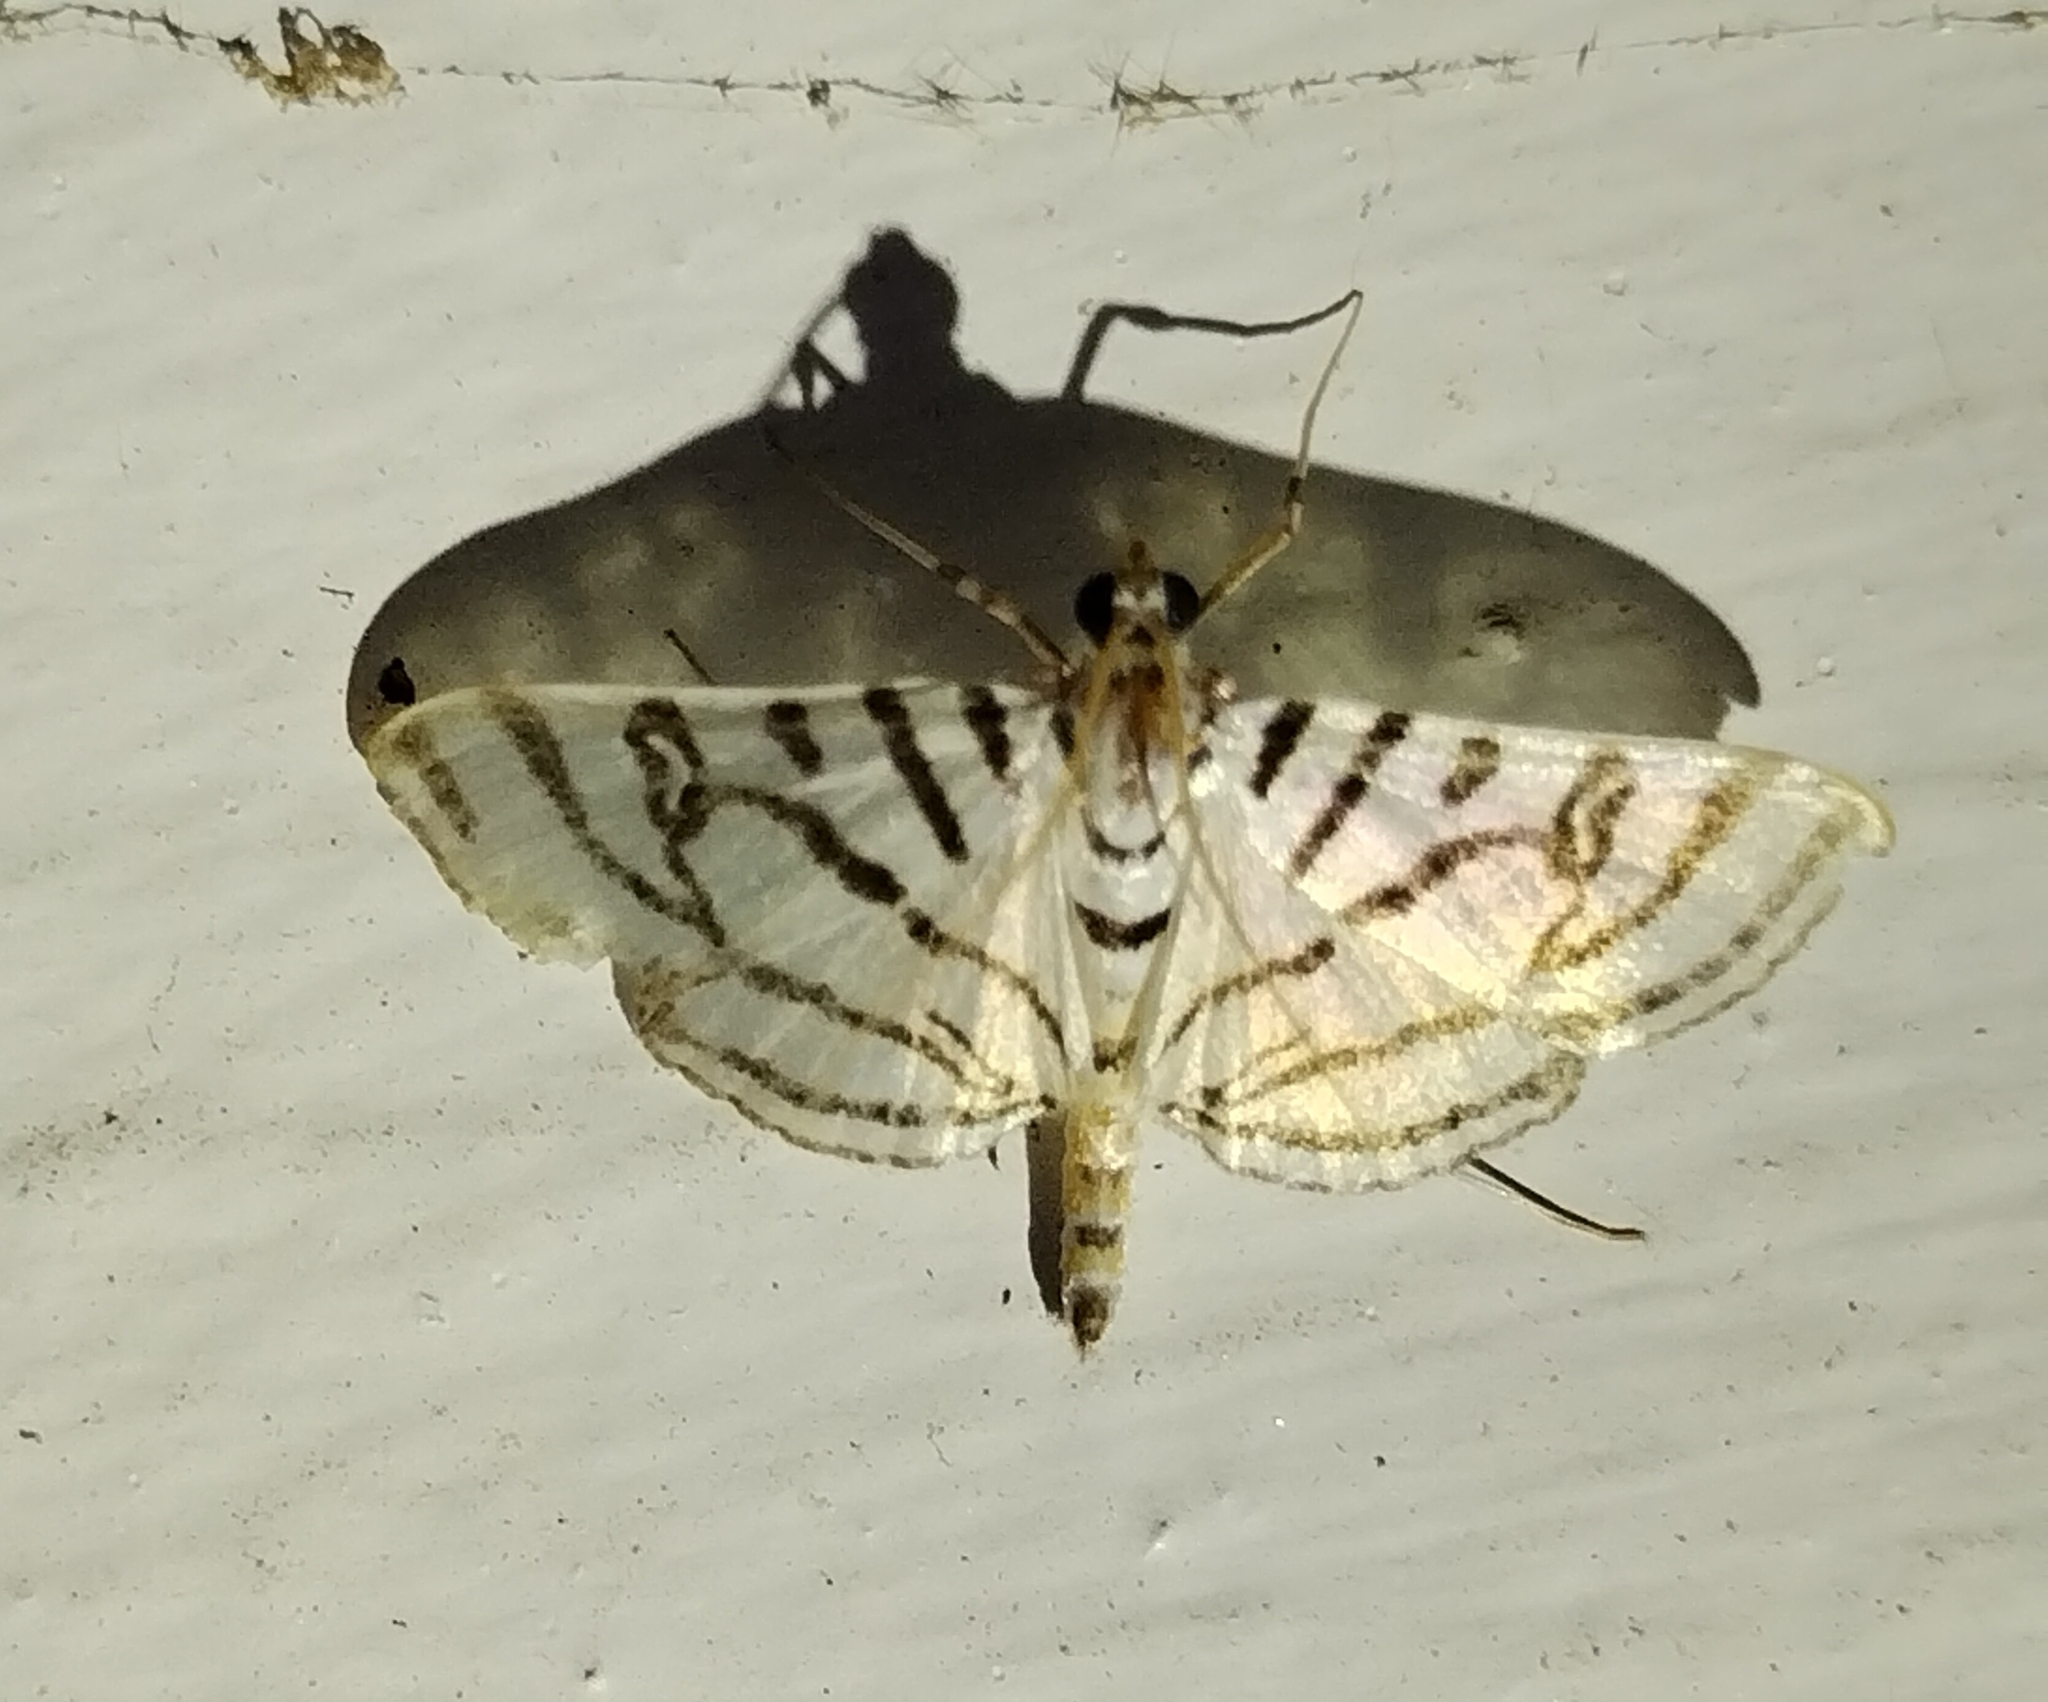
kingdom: Animalia
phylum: Arthropoda
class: Insecta
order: Lepidoptera
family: Crambidae
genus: Conchylodes
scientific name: Conchylodes ovulalis
